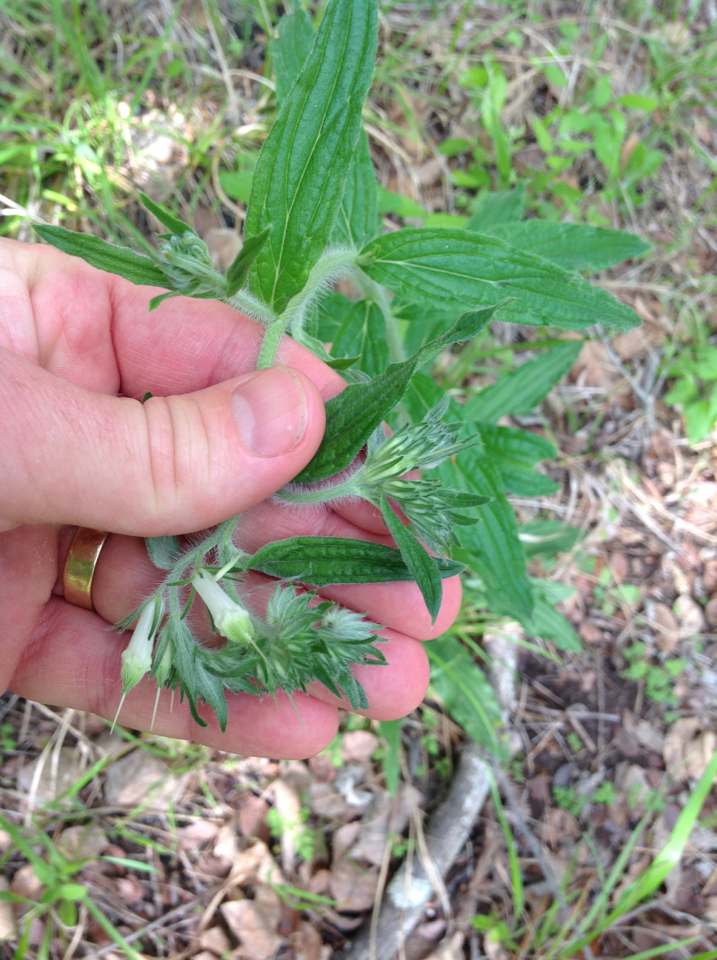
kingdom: Plantae
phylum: Tracheophyta
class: Magnoliopsida
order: Boraginales
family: Boraginaceae
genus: Lithospermum
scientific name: Lithospermum caroliniense
